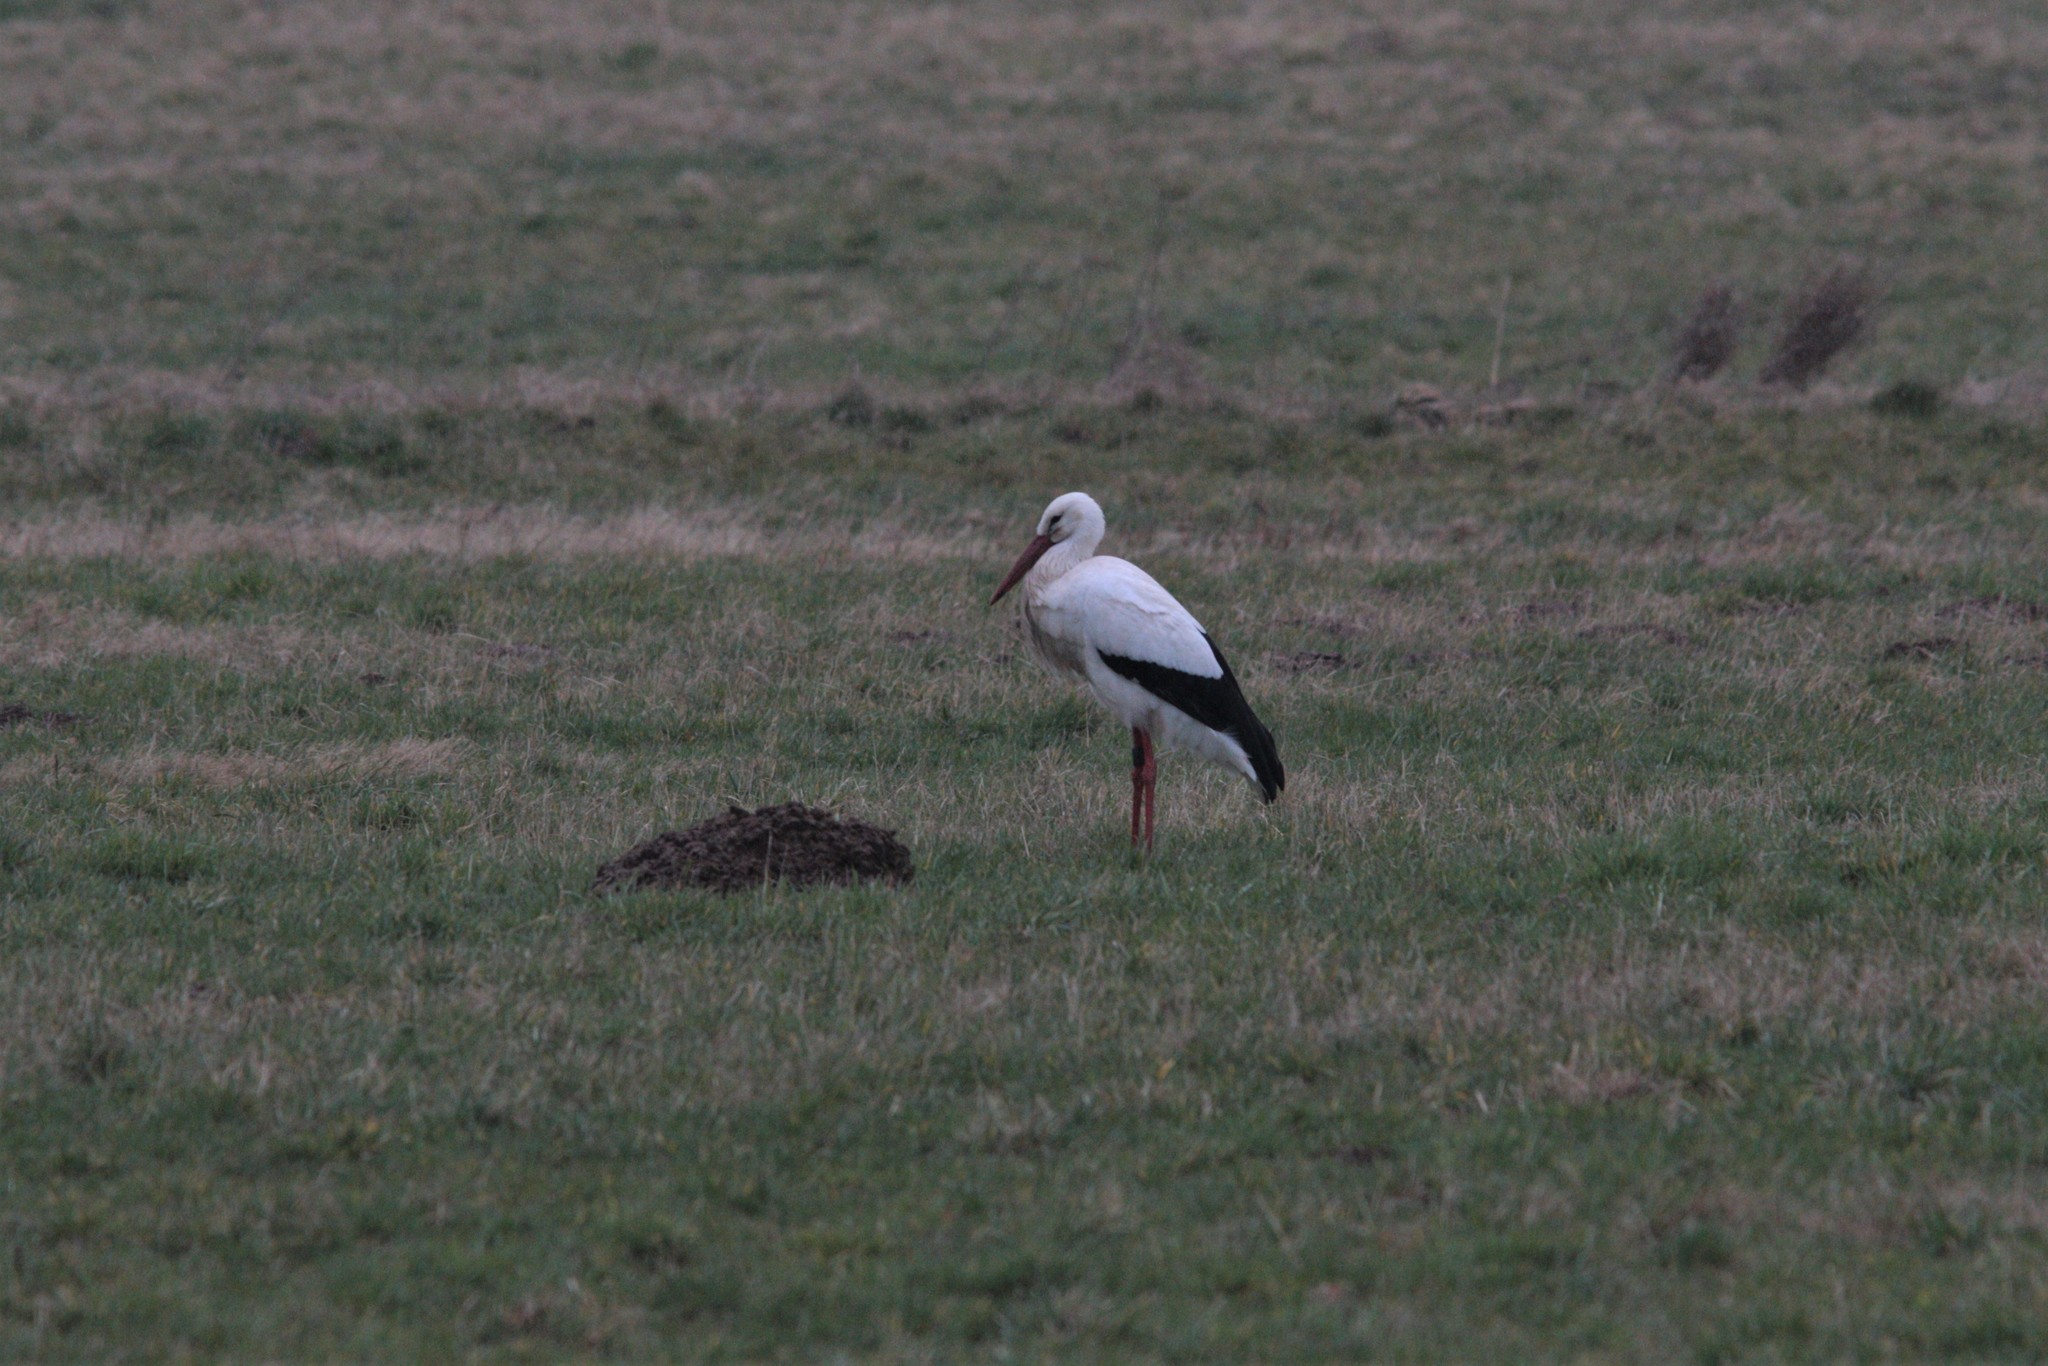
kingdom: Animalia
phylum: Chordata
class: Aves
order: Ciconiiformes
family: Ciconiidae
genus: Ciconia
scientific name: Ciconia ciconia
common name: White stork
